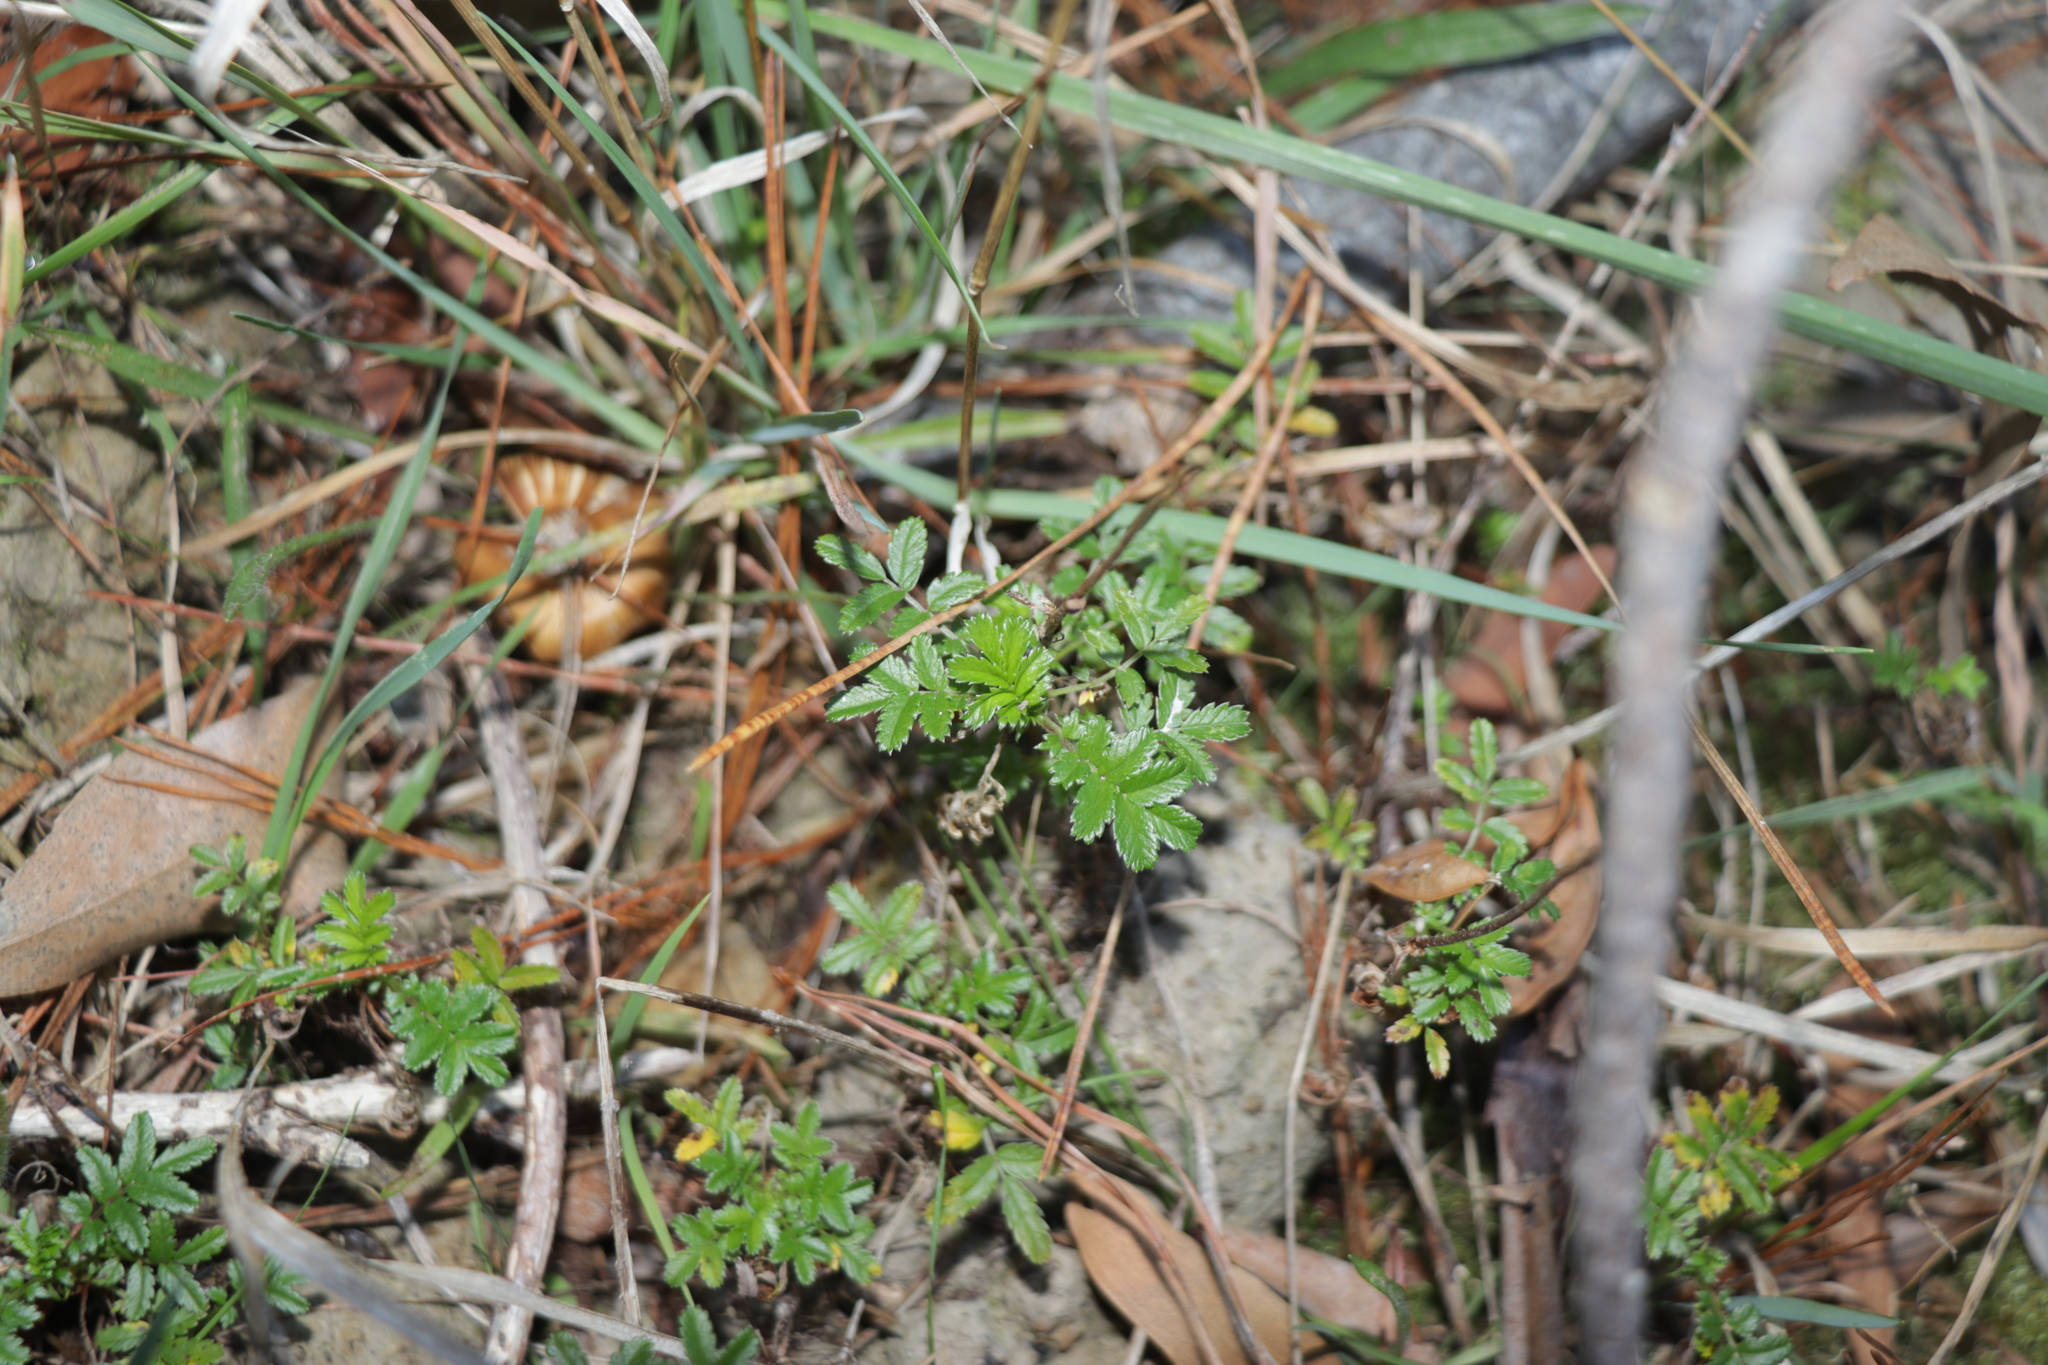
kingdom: Plantae
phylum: Tracheophyta
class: Magnoliopsida
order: Rosales
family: Rosaceae
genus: Acaena
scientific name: Acaena novae-zelandiae
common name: Pirri-pirri-bur
